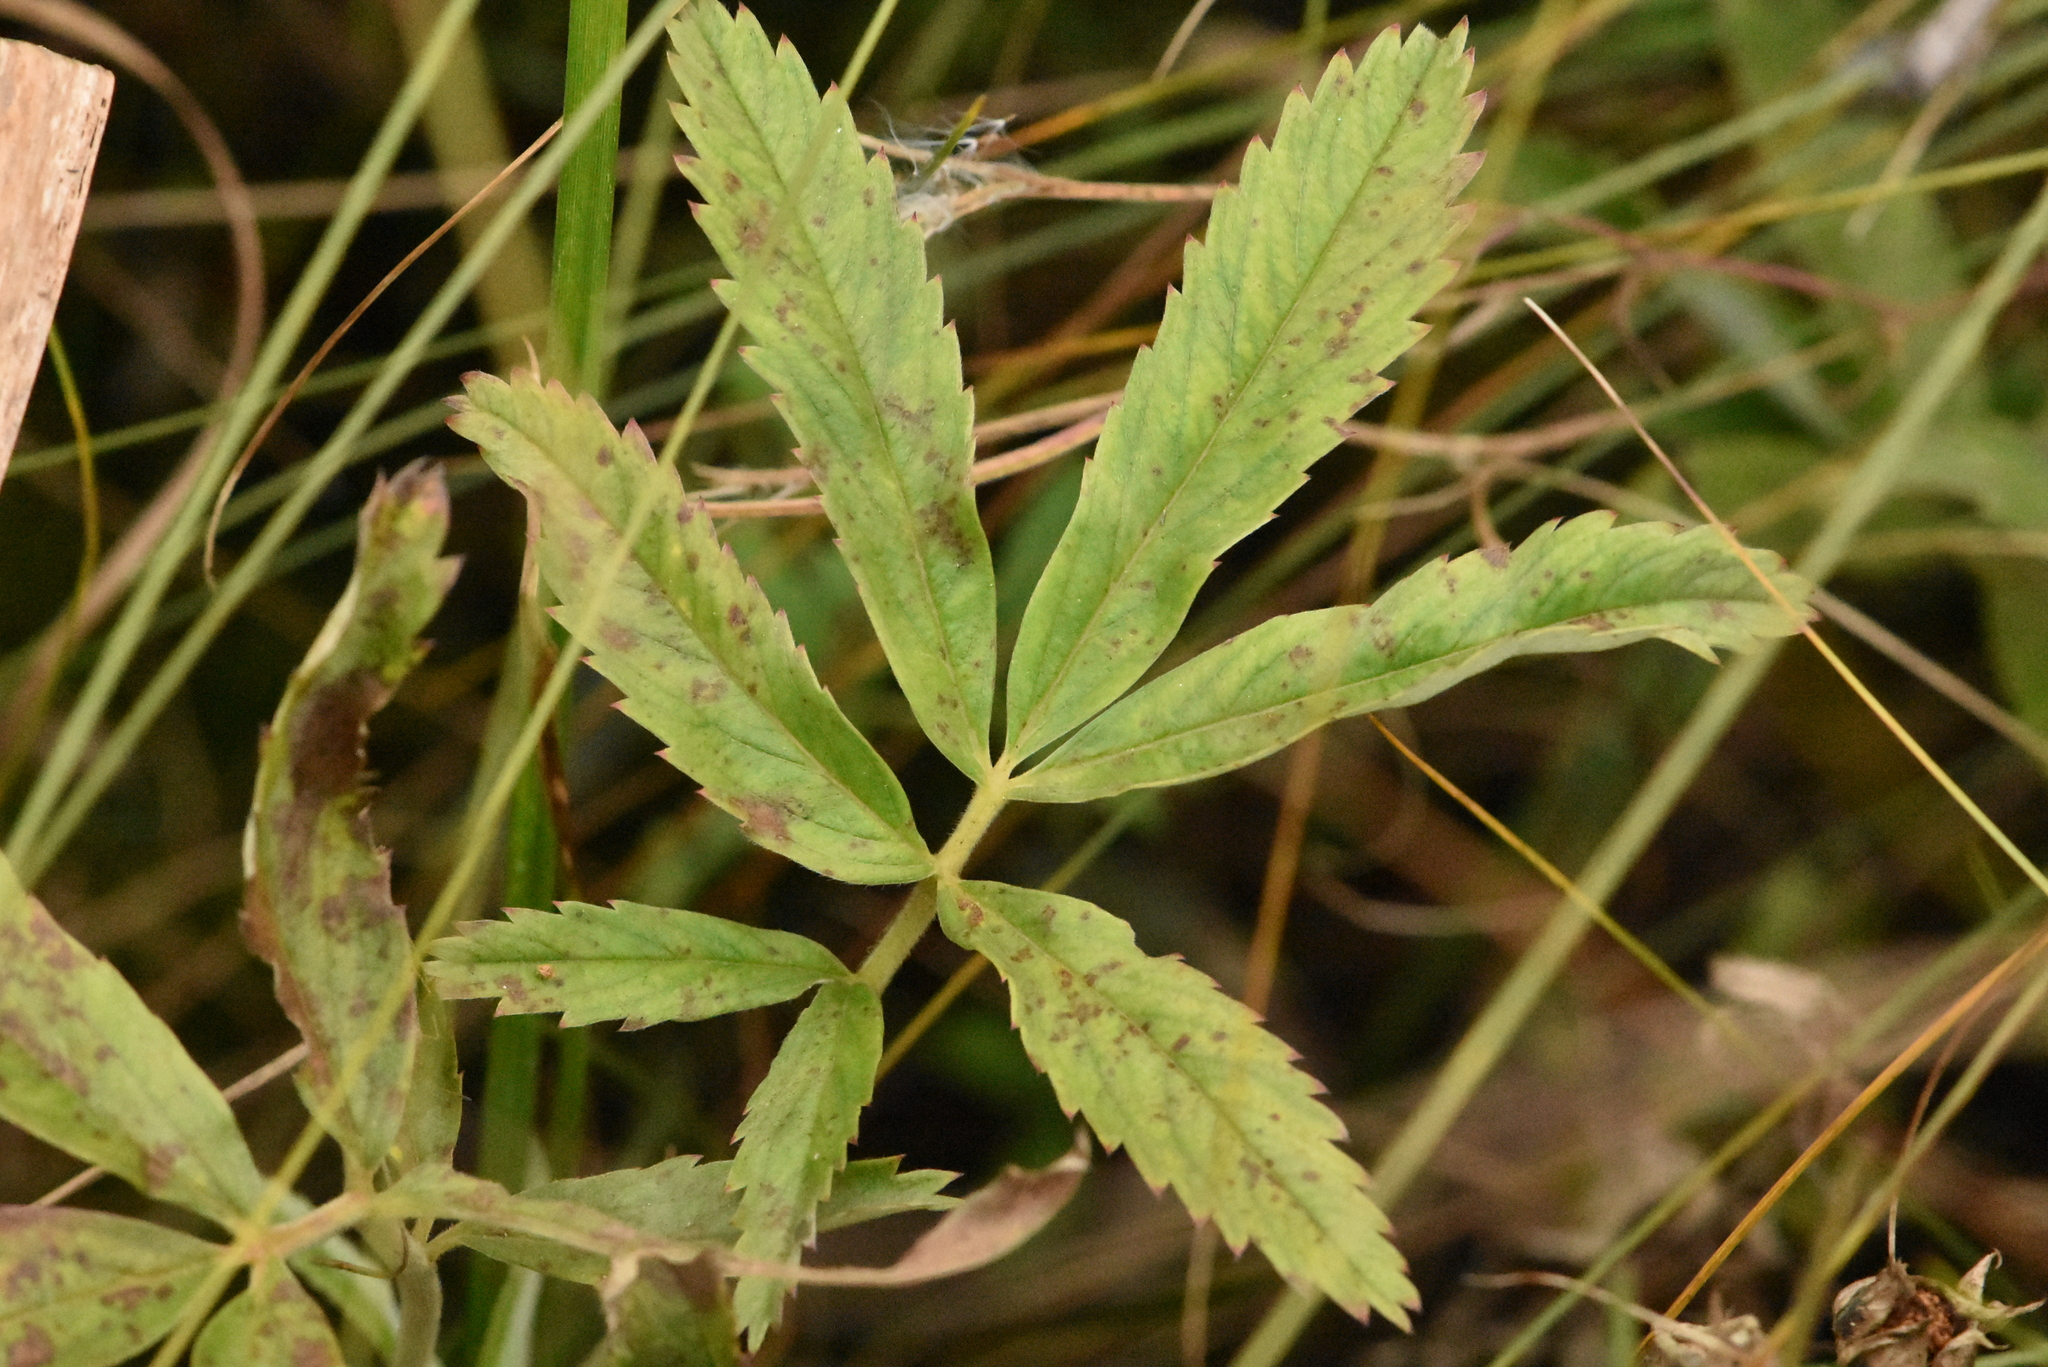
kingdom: Plantae
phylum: Tracheophyta
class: Magnoliopsida
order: Rosales
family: Rosaceae
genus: Comarum
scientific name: Comarum palustre
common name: Marsh cinquefoil
